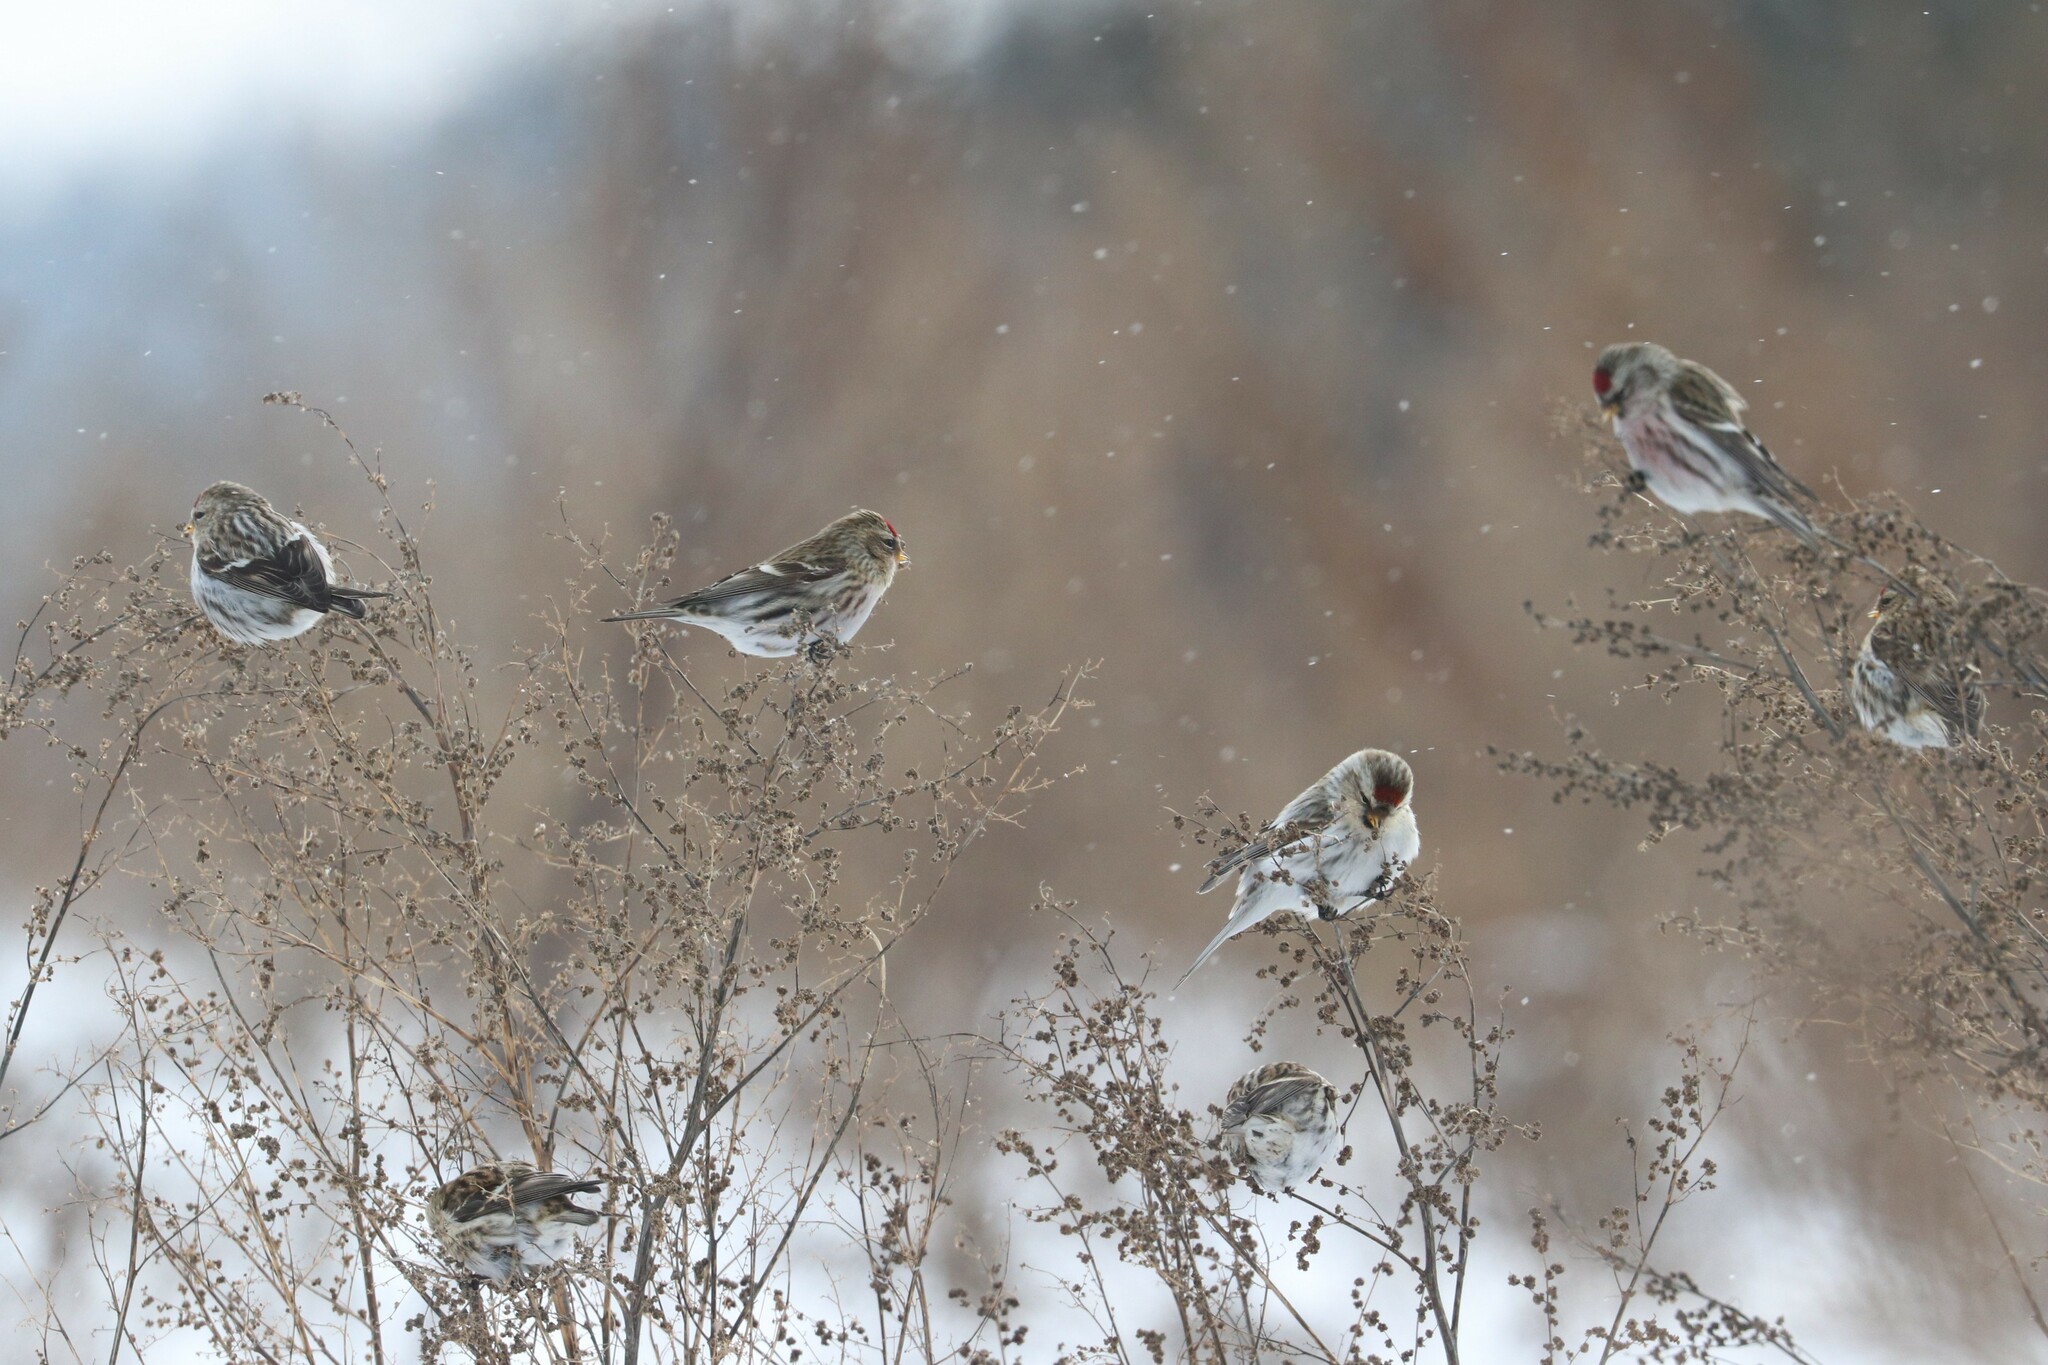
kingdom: Animalia
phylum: Chordata
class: Aves
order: Passeriformes
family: Fringillidae
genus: Acanthis
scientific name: Acanthis flammea
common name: Common redpoll
